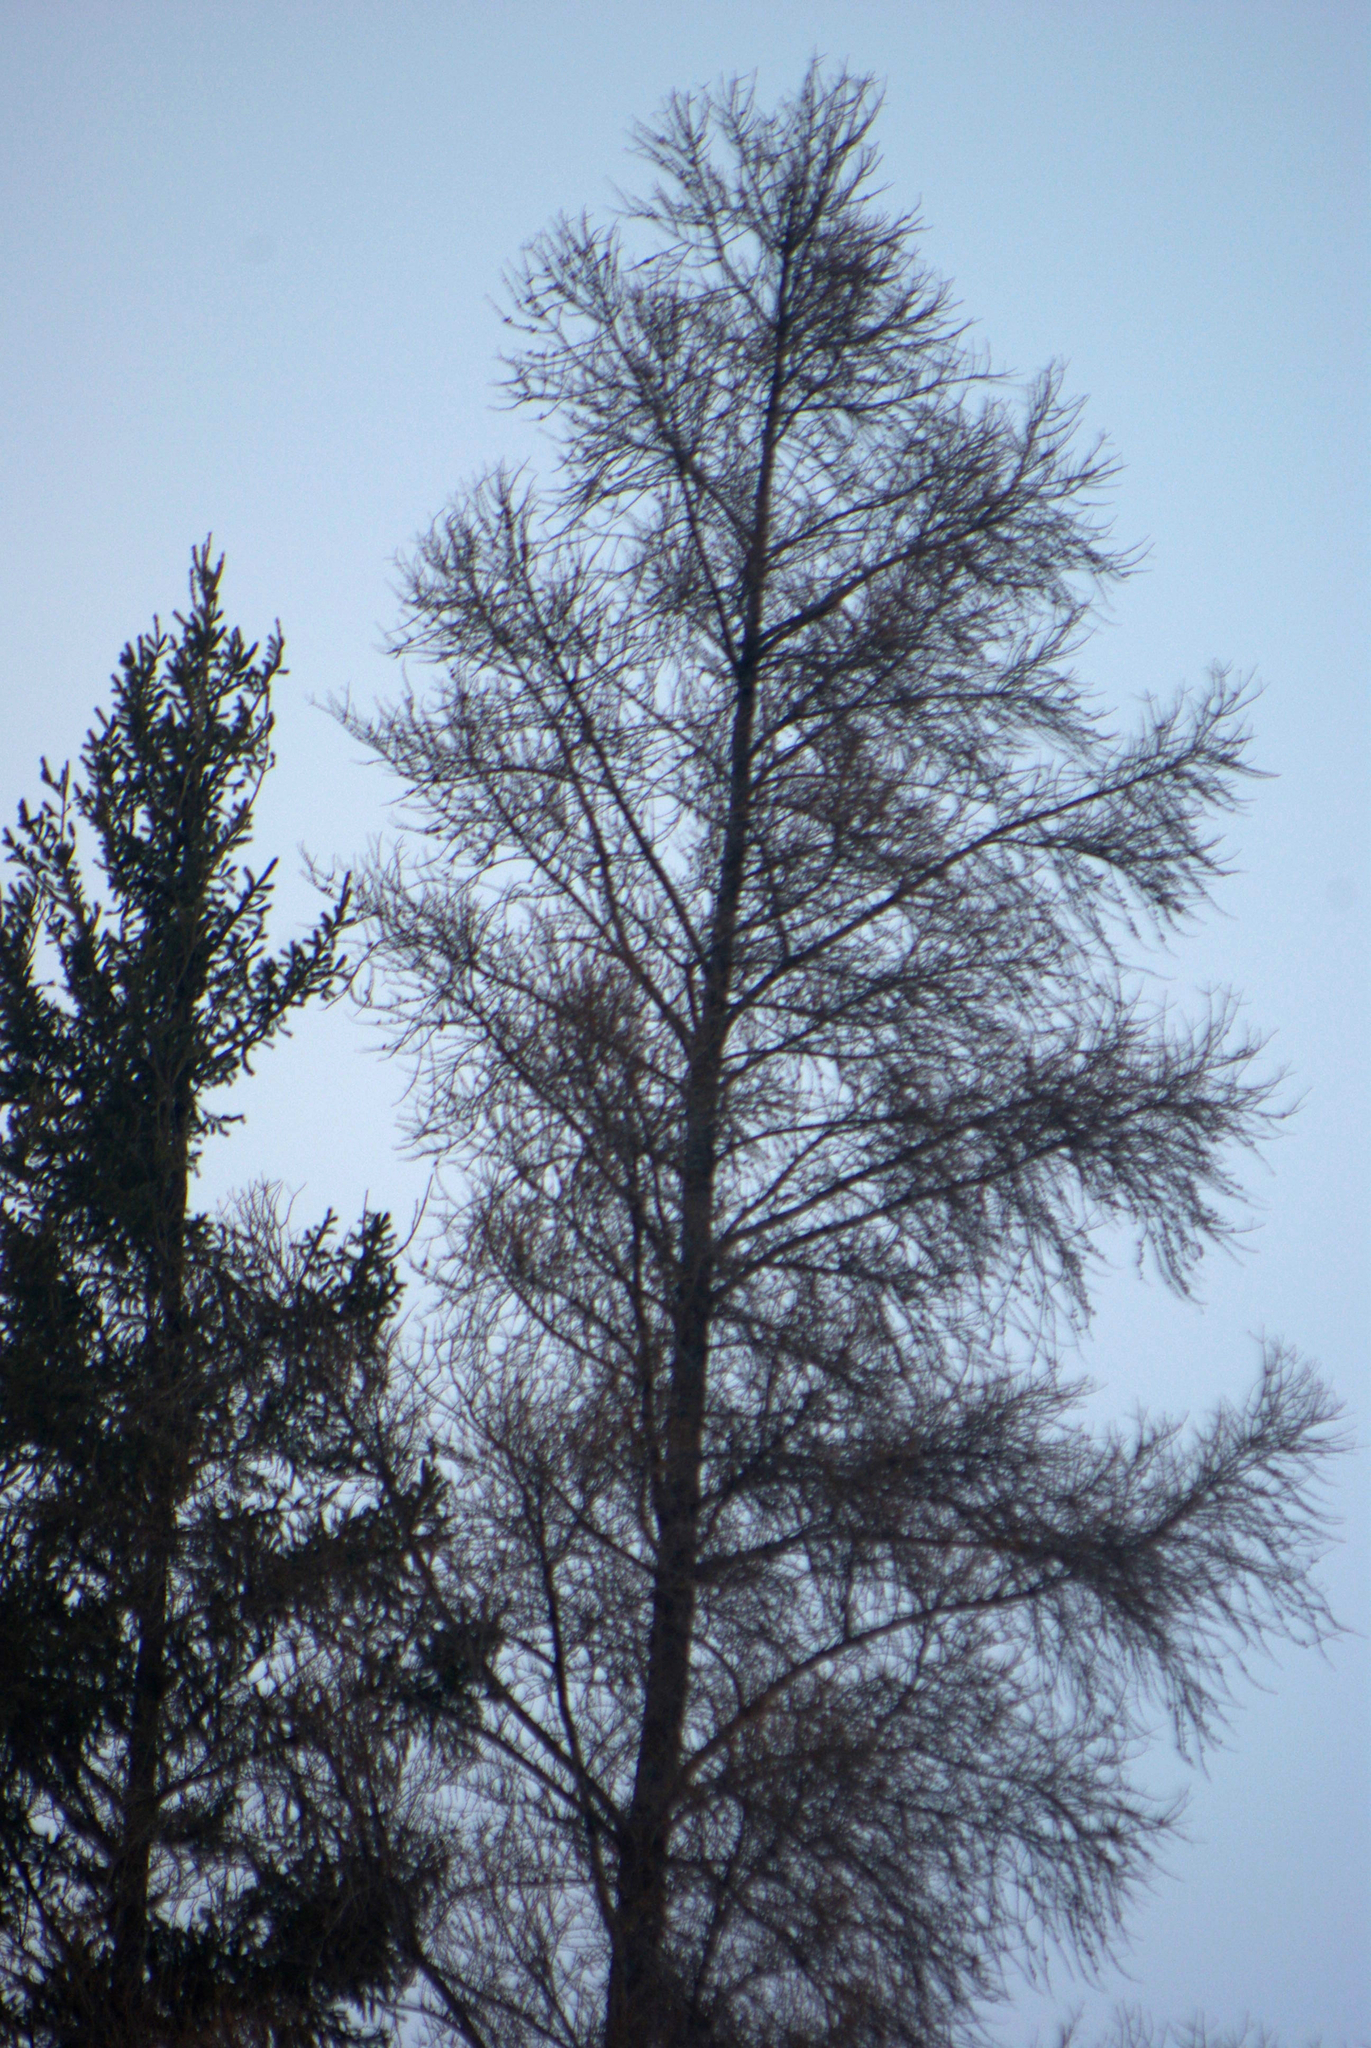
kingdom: Plantae
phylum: Tracheophyta
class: Pinopsida
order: Pinales
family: Pinaceae
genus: Larix
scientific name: Larix laricina
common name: American larch
